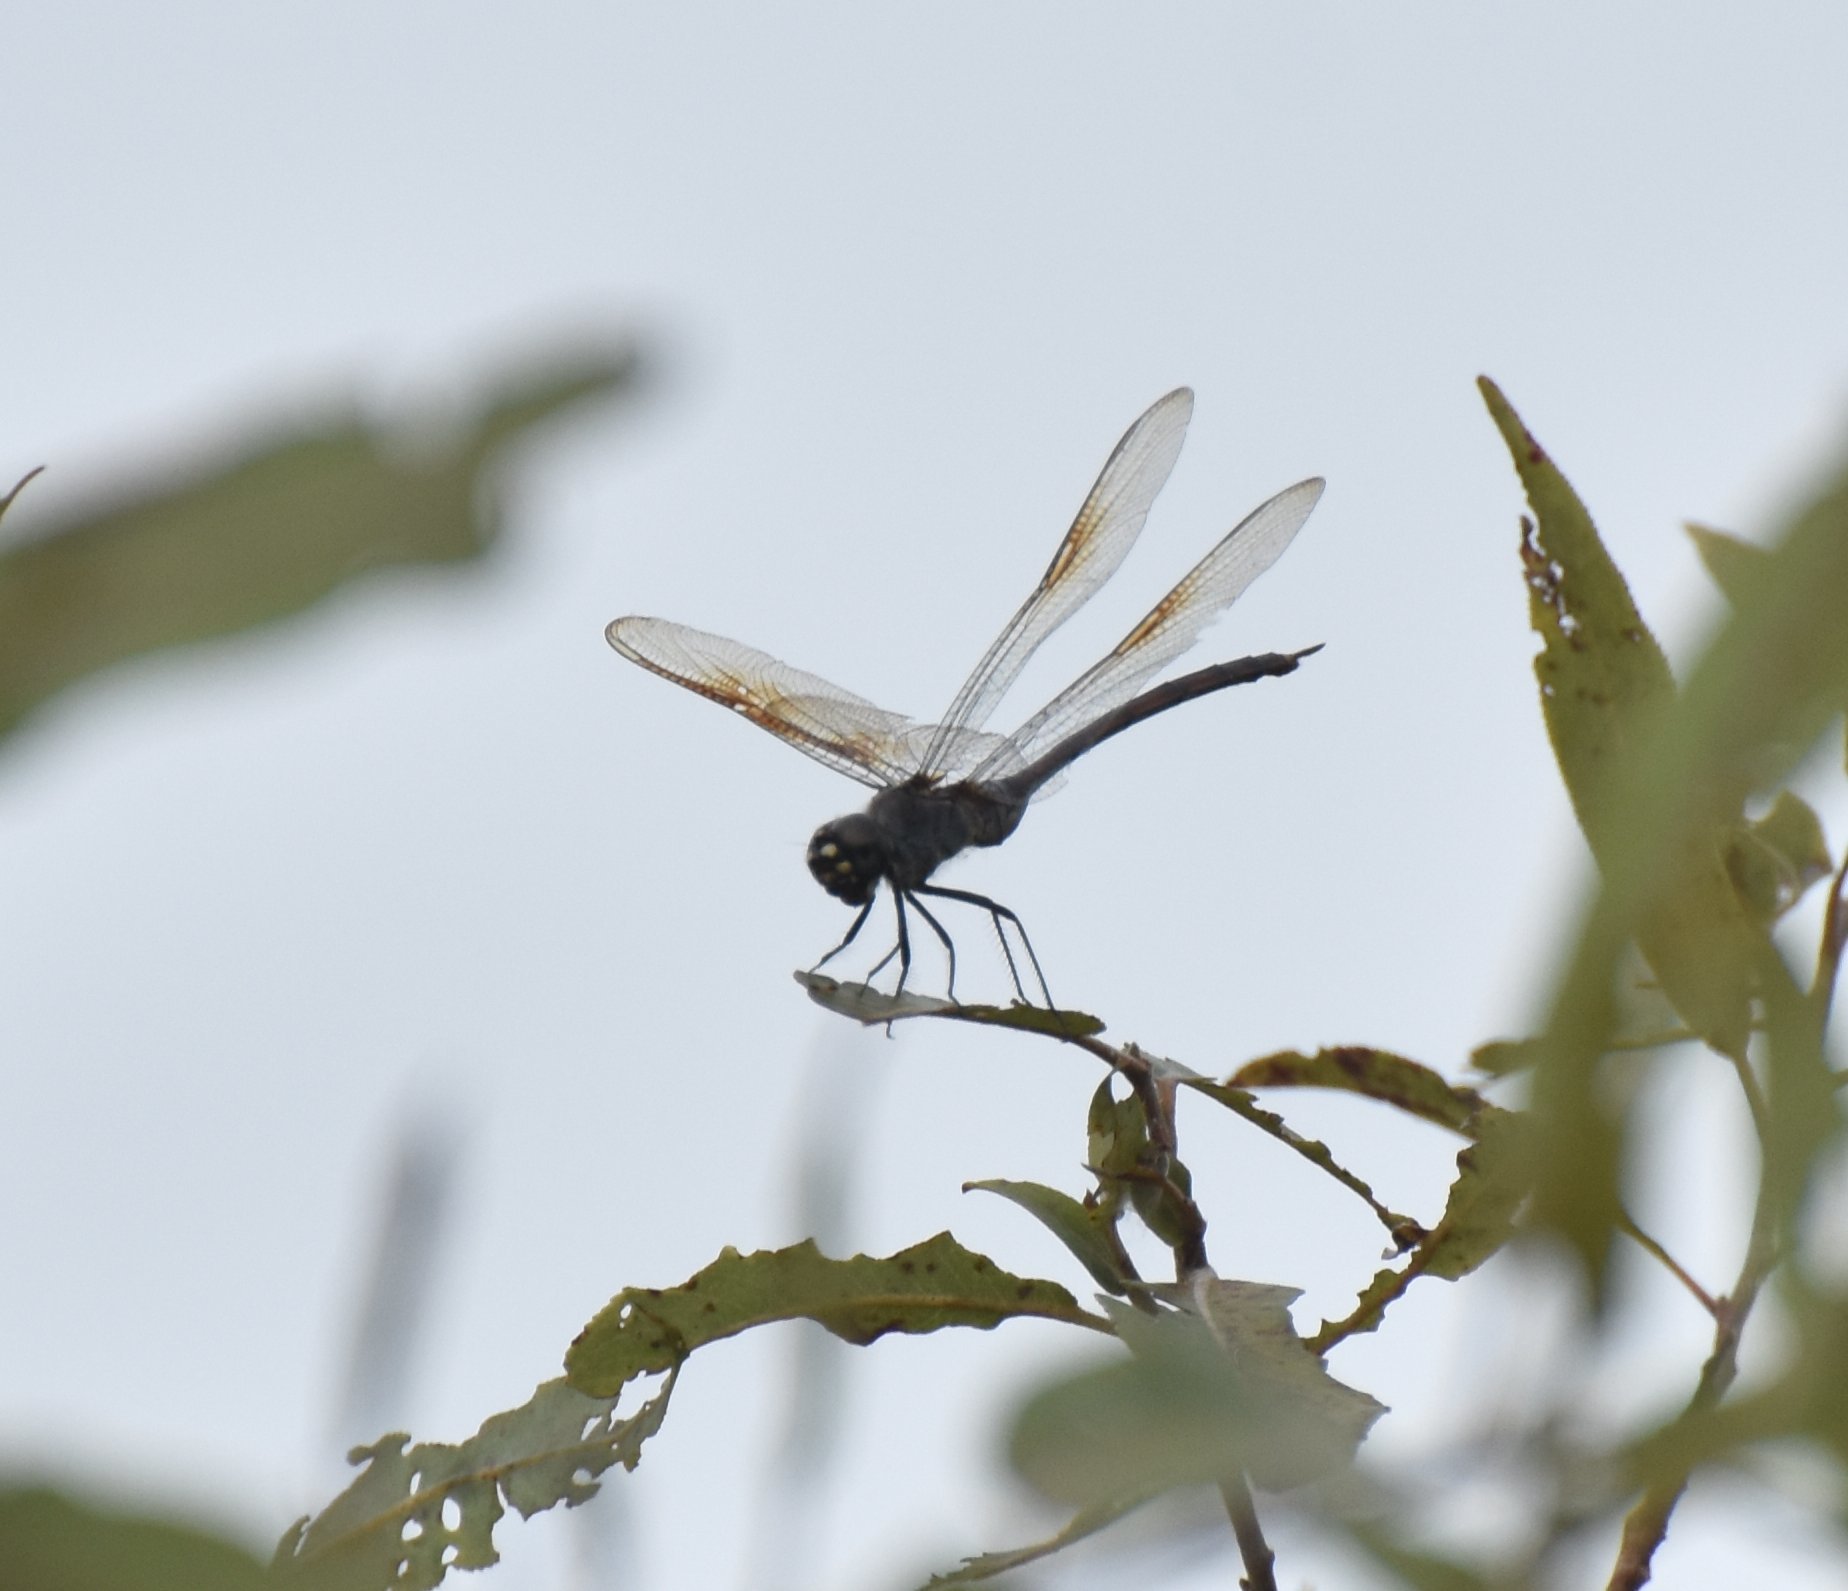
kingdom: Animalia
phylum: Arthropoda
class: Insecta
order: Odonata
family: Libellulidae
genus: Brachymesia
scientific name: Brachymesia gravida
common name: Four-spotted pennant
